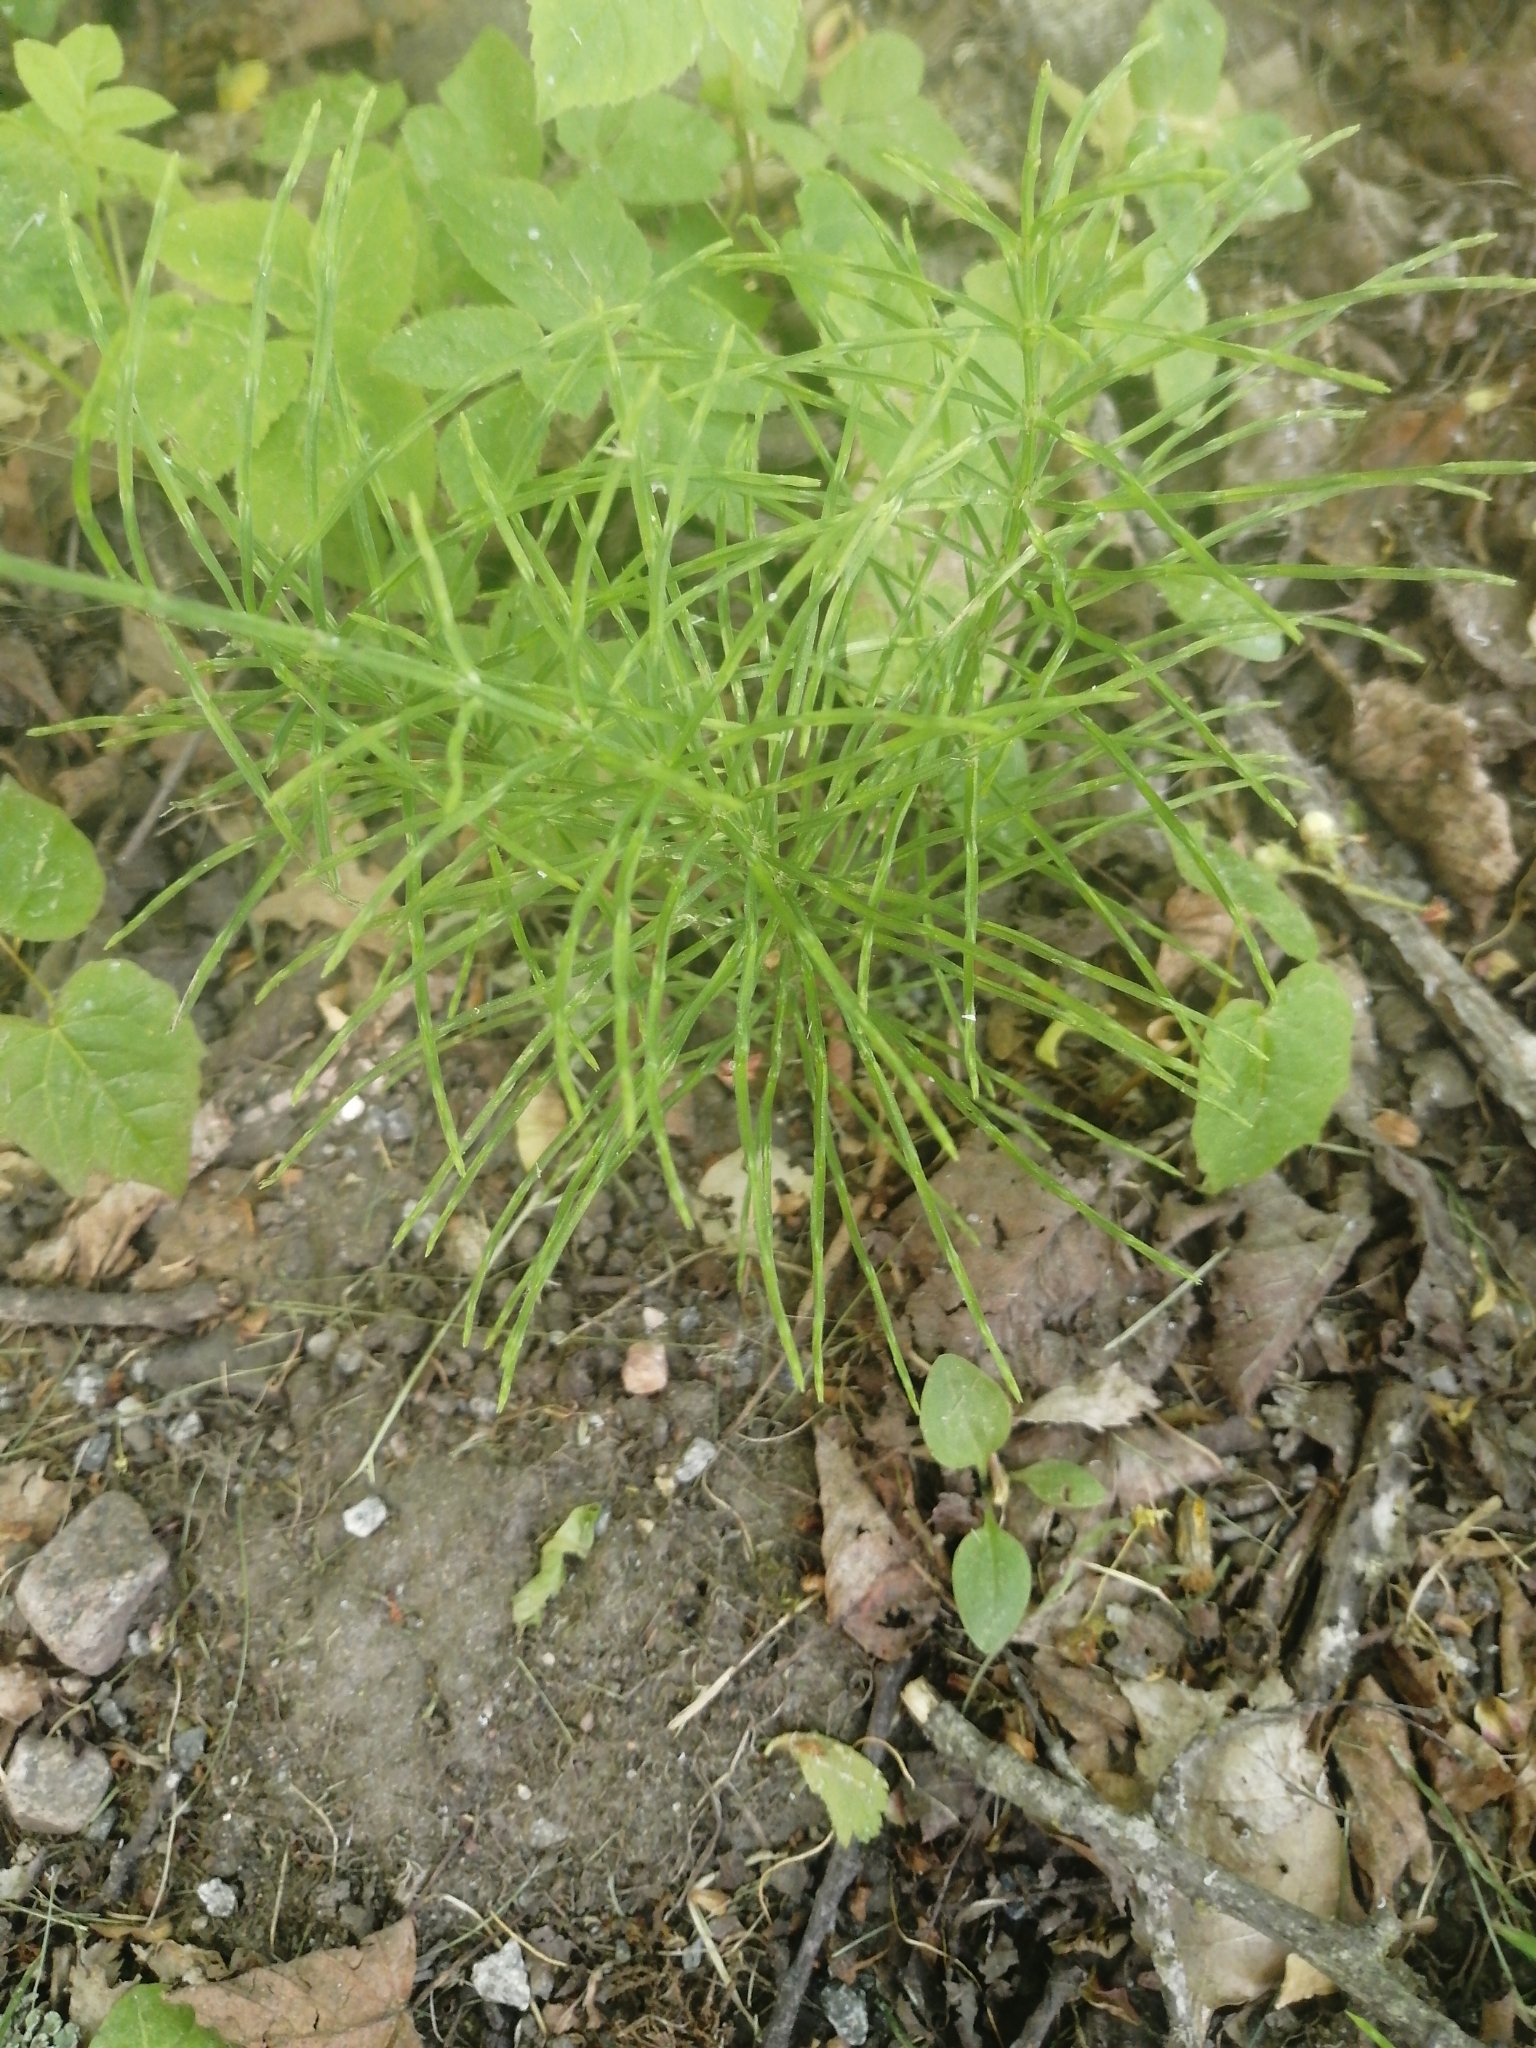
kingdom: Plantae
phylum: Tracheophyta
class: Polypodiopsida
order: Equisetales
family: Equisetaceae
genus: Equisetum
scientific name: Equisetum arvense
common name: Field horsetail
